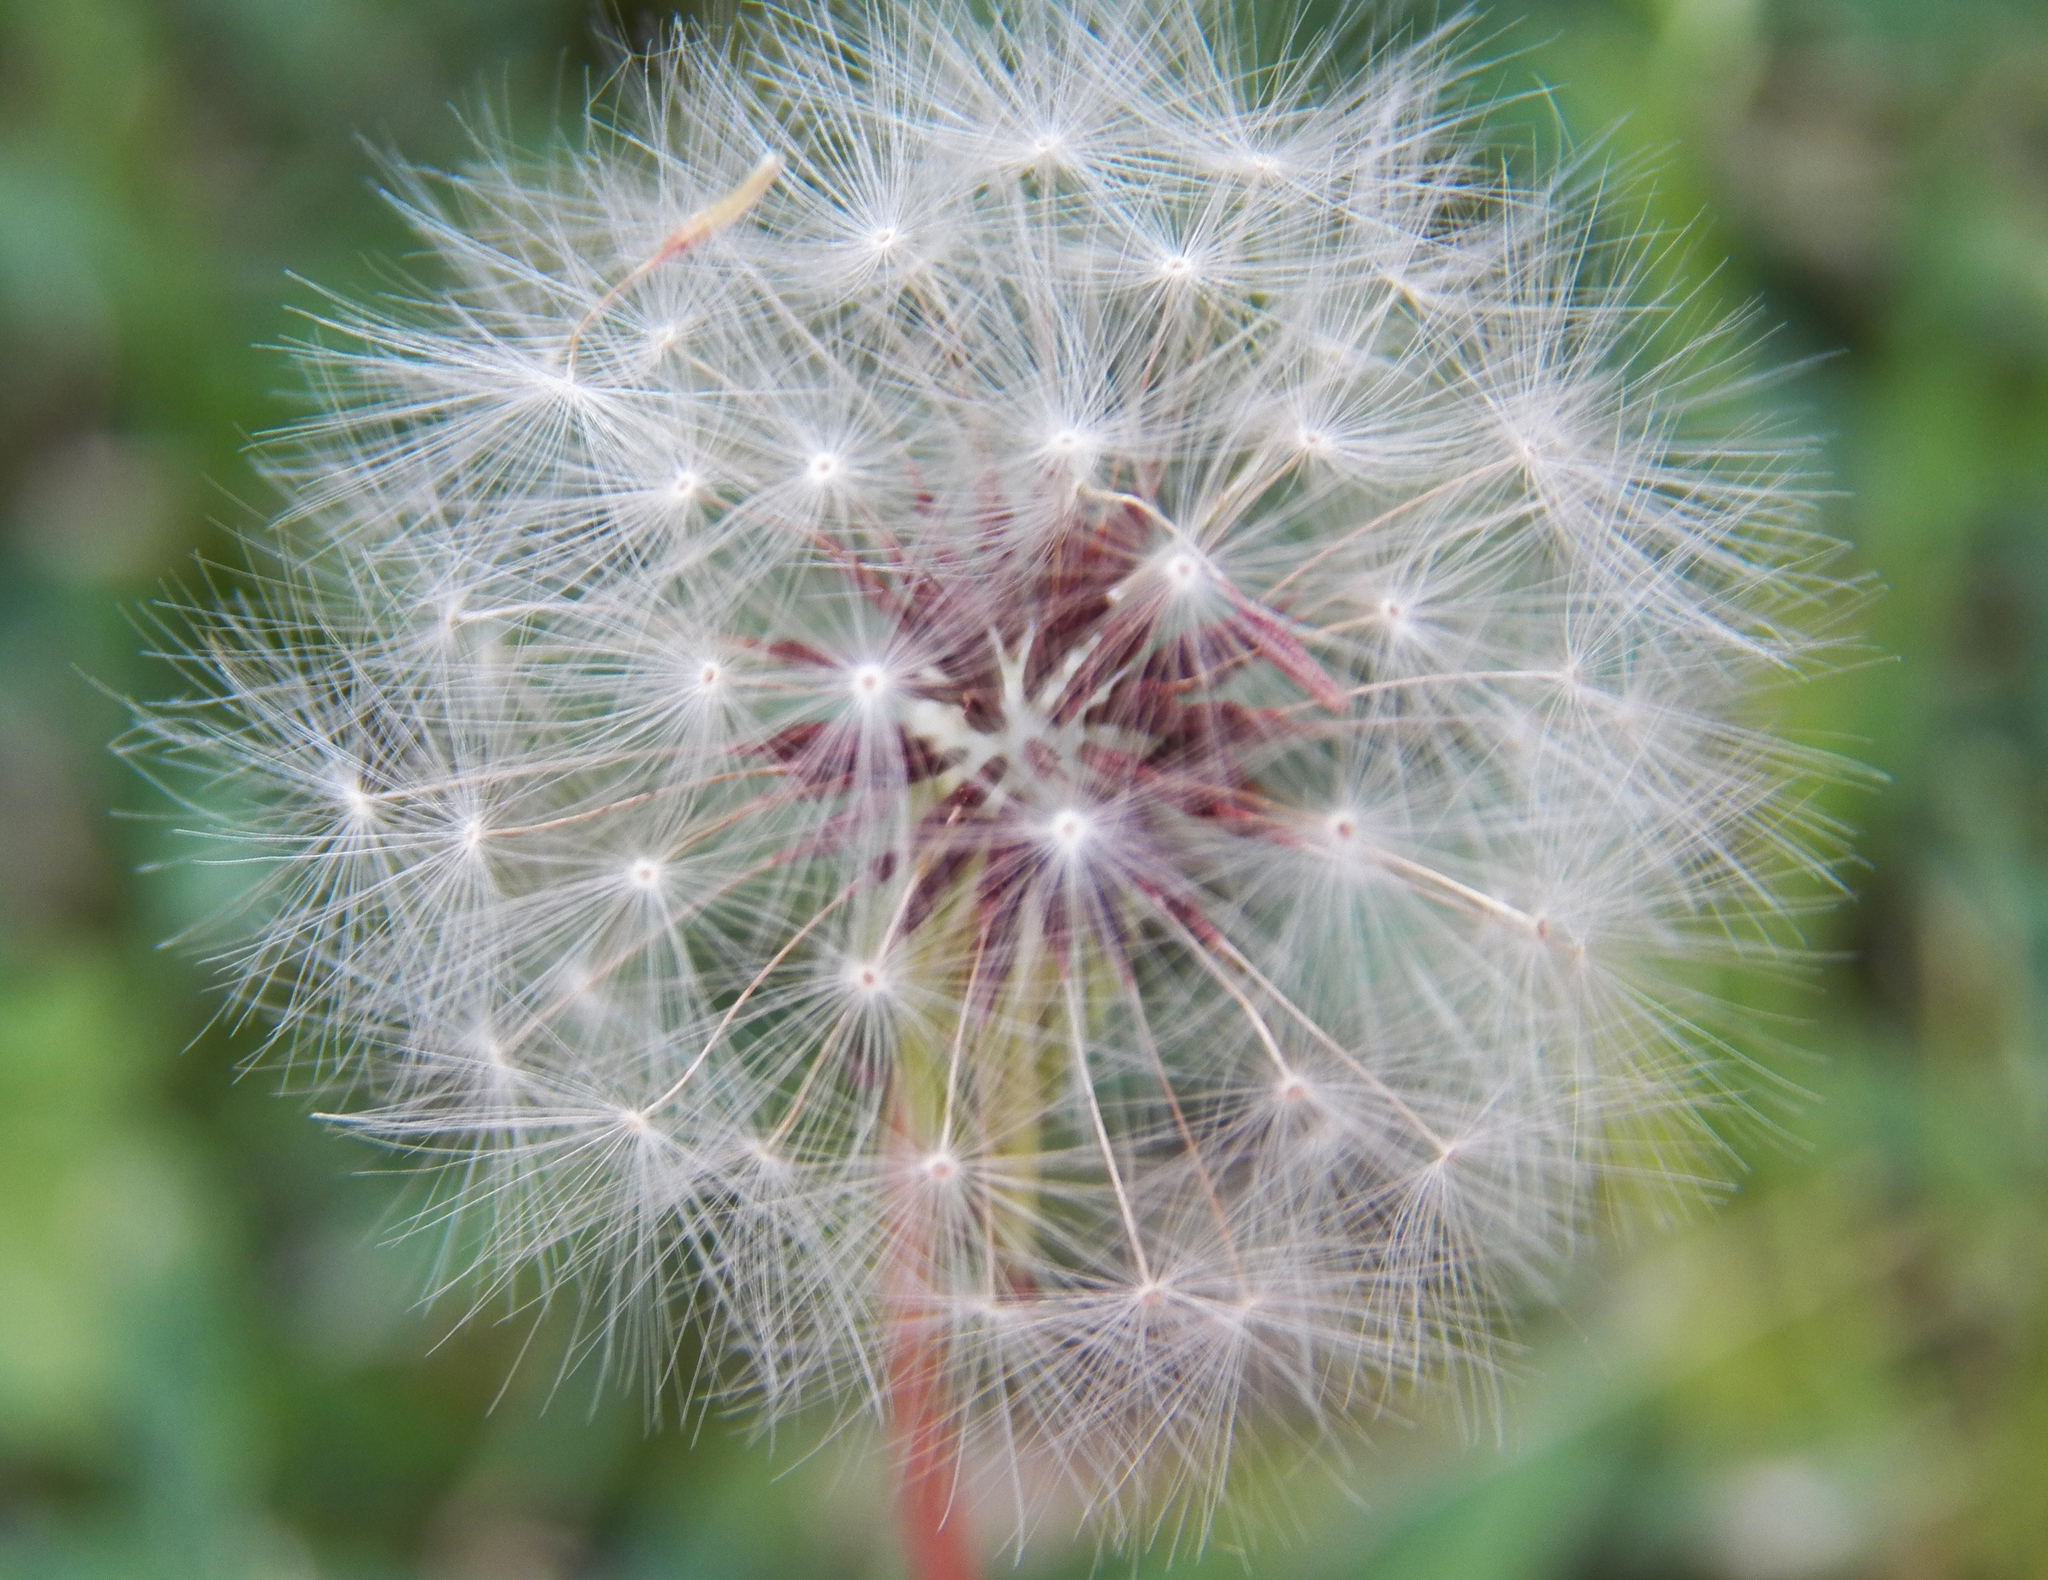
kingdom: Plantae
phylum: Tracheophyta
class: Magnoliopsida
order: Asterales
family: Asteraceae
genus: Taraxacum
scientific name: Taraxacum
